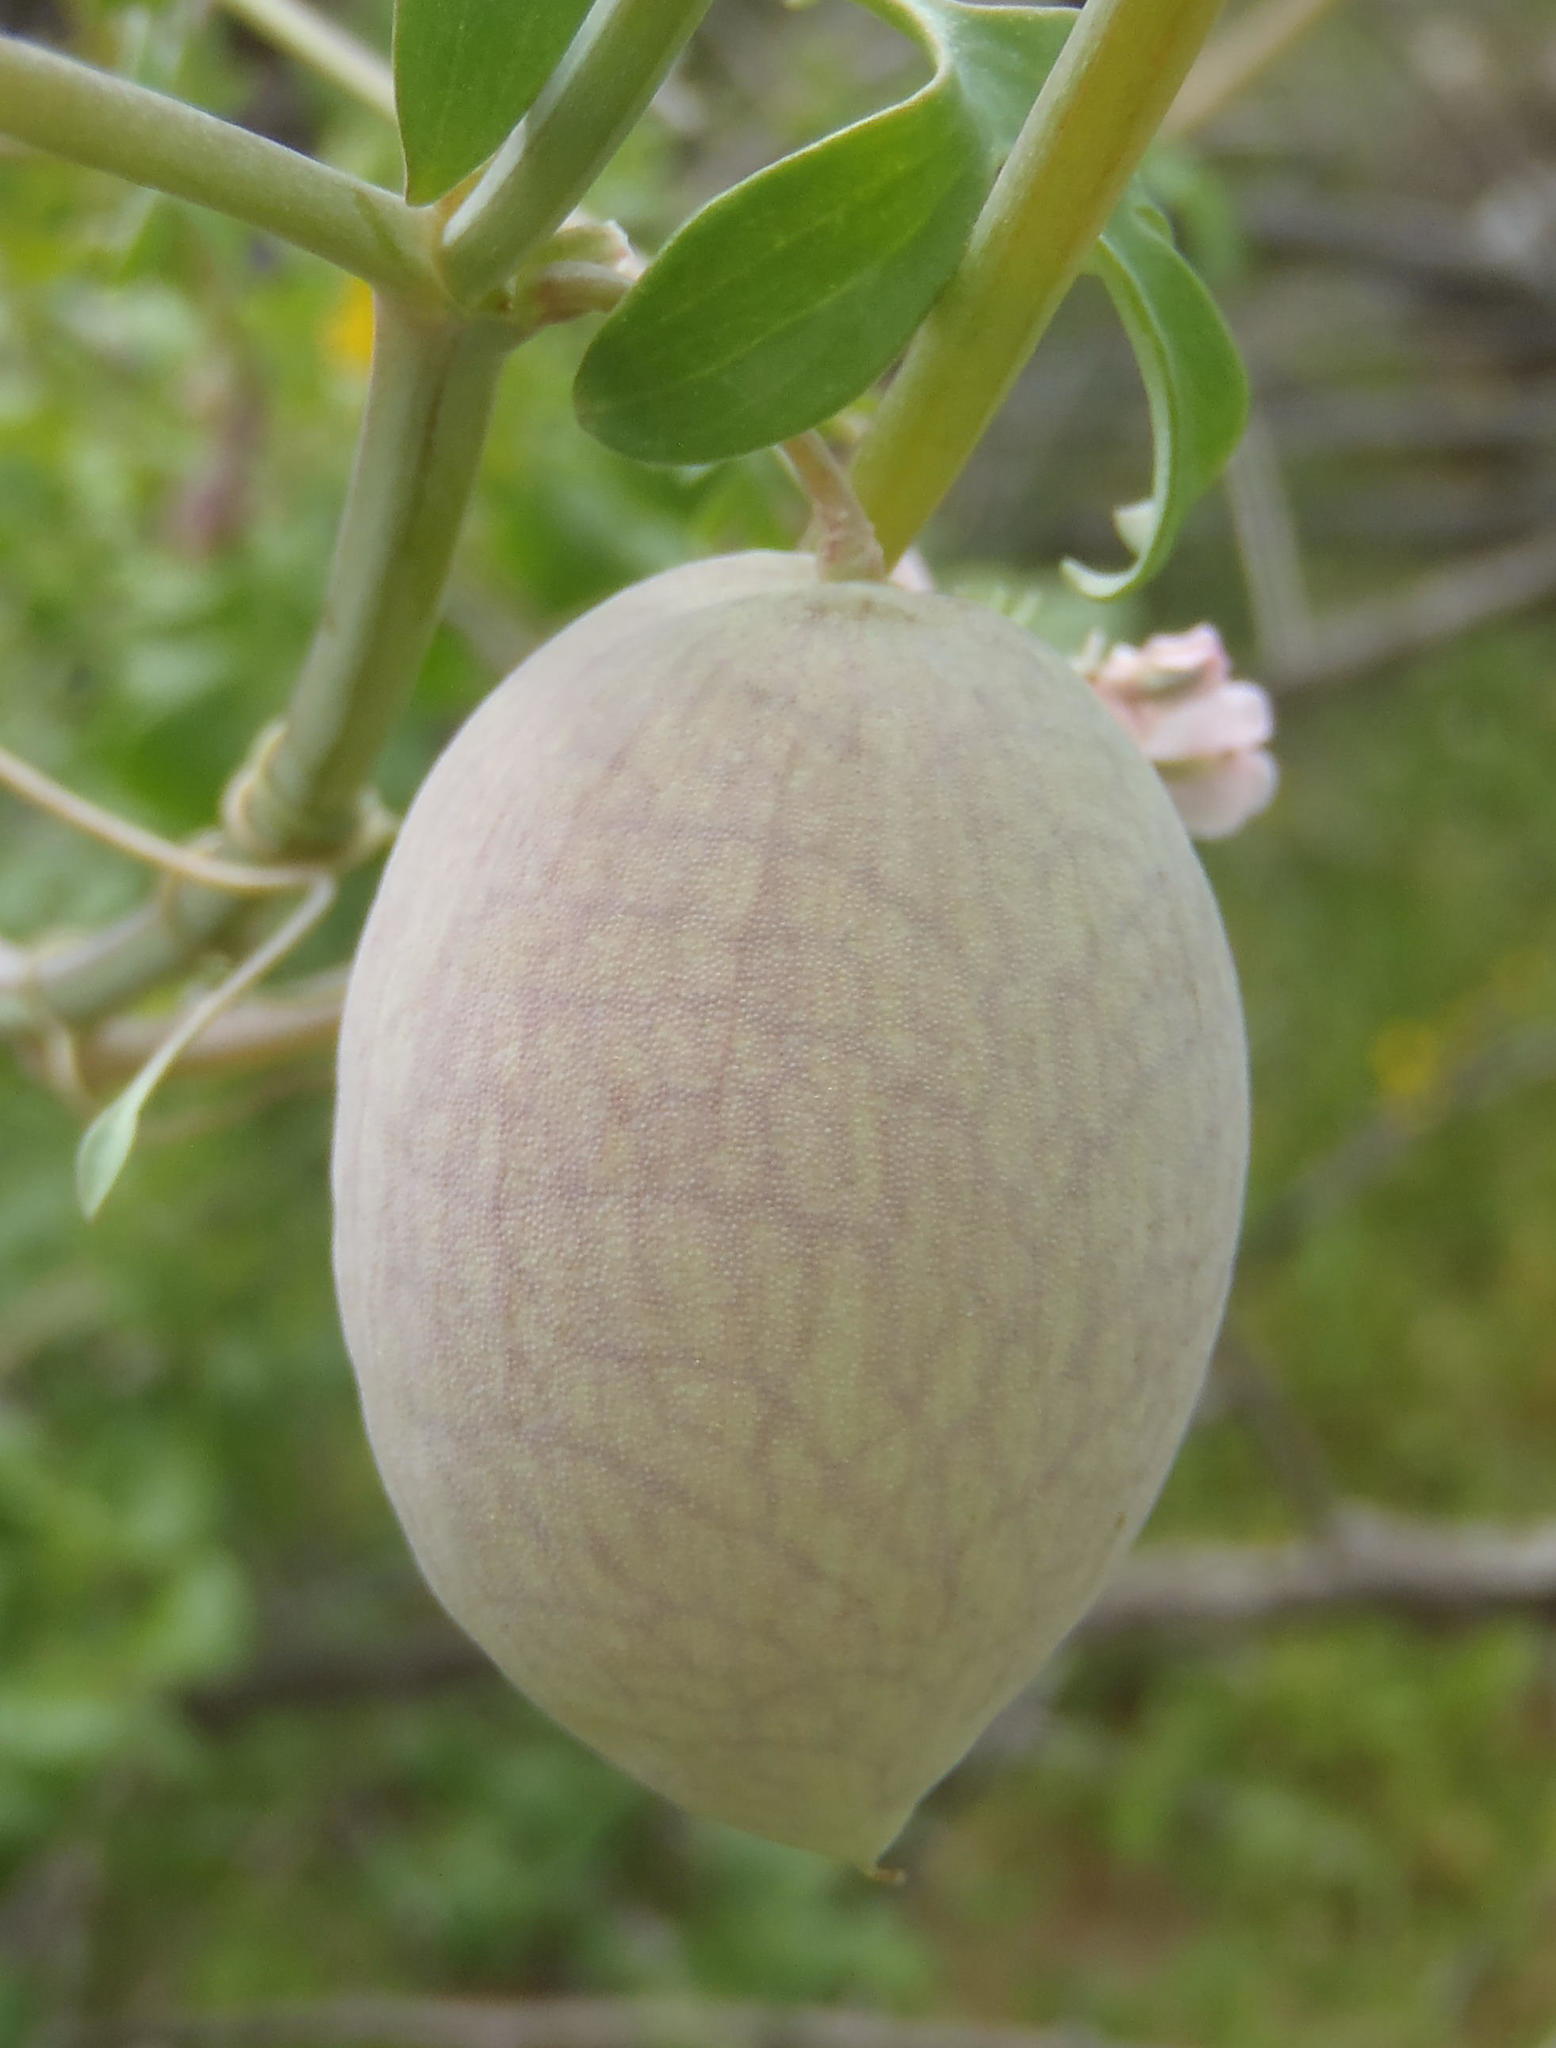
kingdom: Plantae
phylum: Tracheophyta
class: Magnoliopsida
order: Ranunculales
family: Papaveraceae
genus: Cysticapnos
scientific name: Cysticapnos vesicaria
